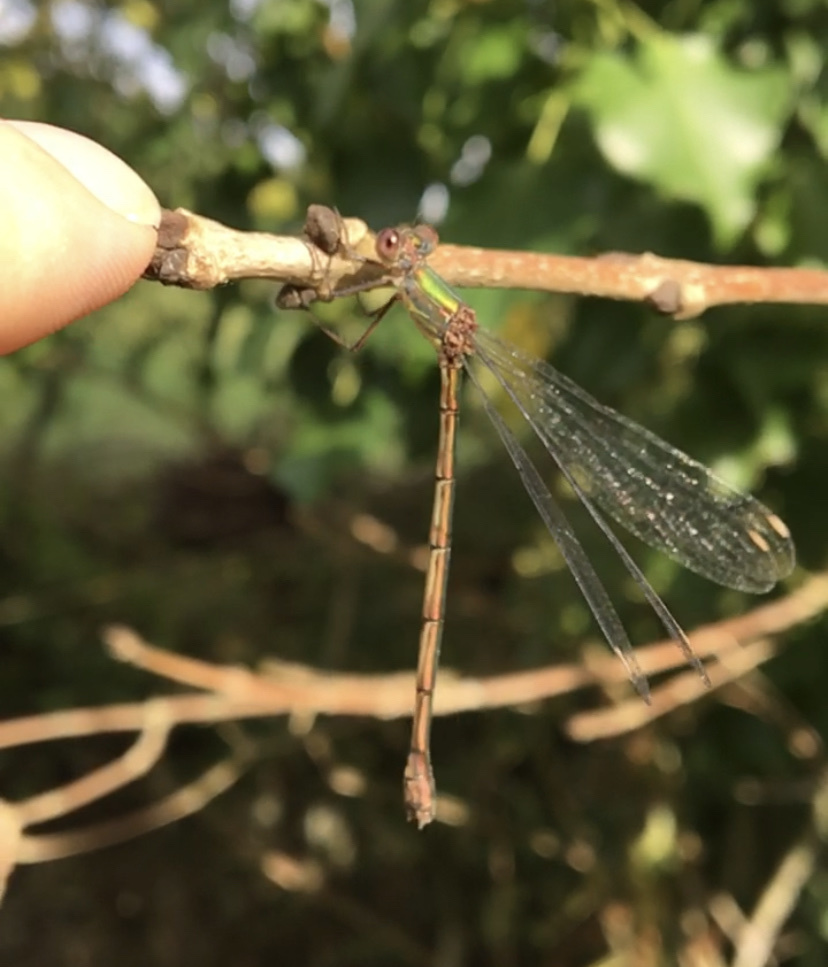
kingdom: Animalia
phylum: Arthropoda
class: Insecta
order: Odonata
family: Lestidae
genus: Chalcolestes
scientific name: Chalcolestes viridis
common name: Green emerald damselfly
